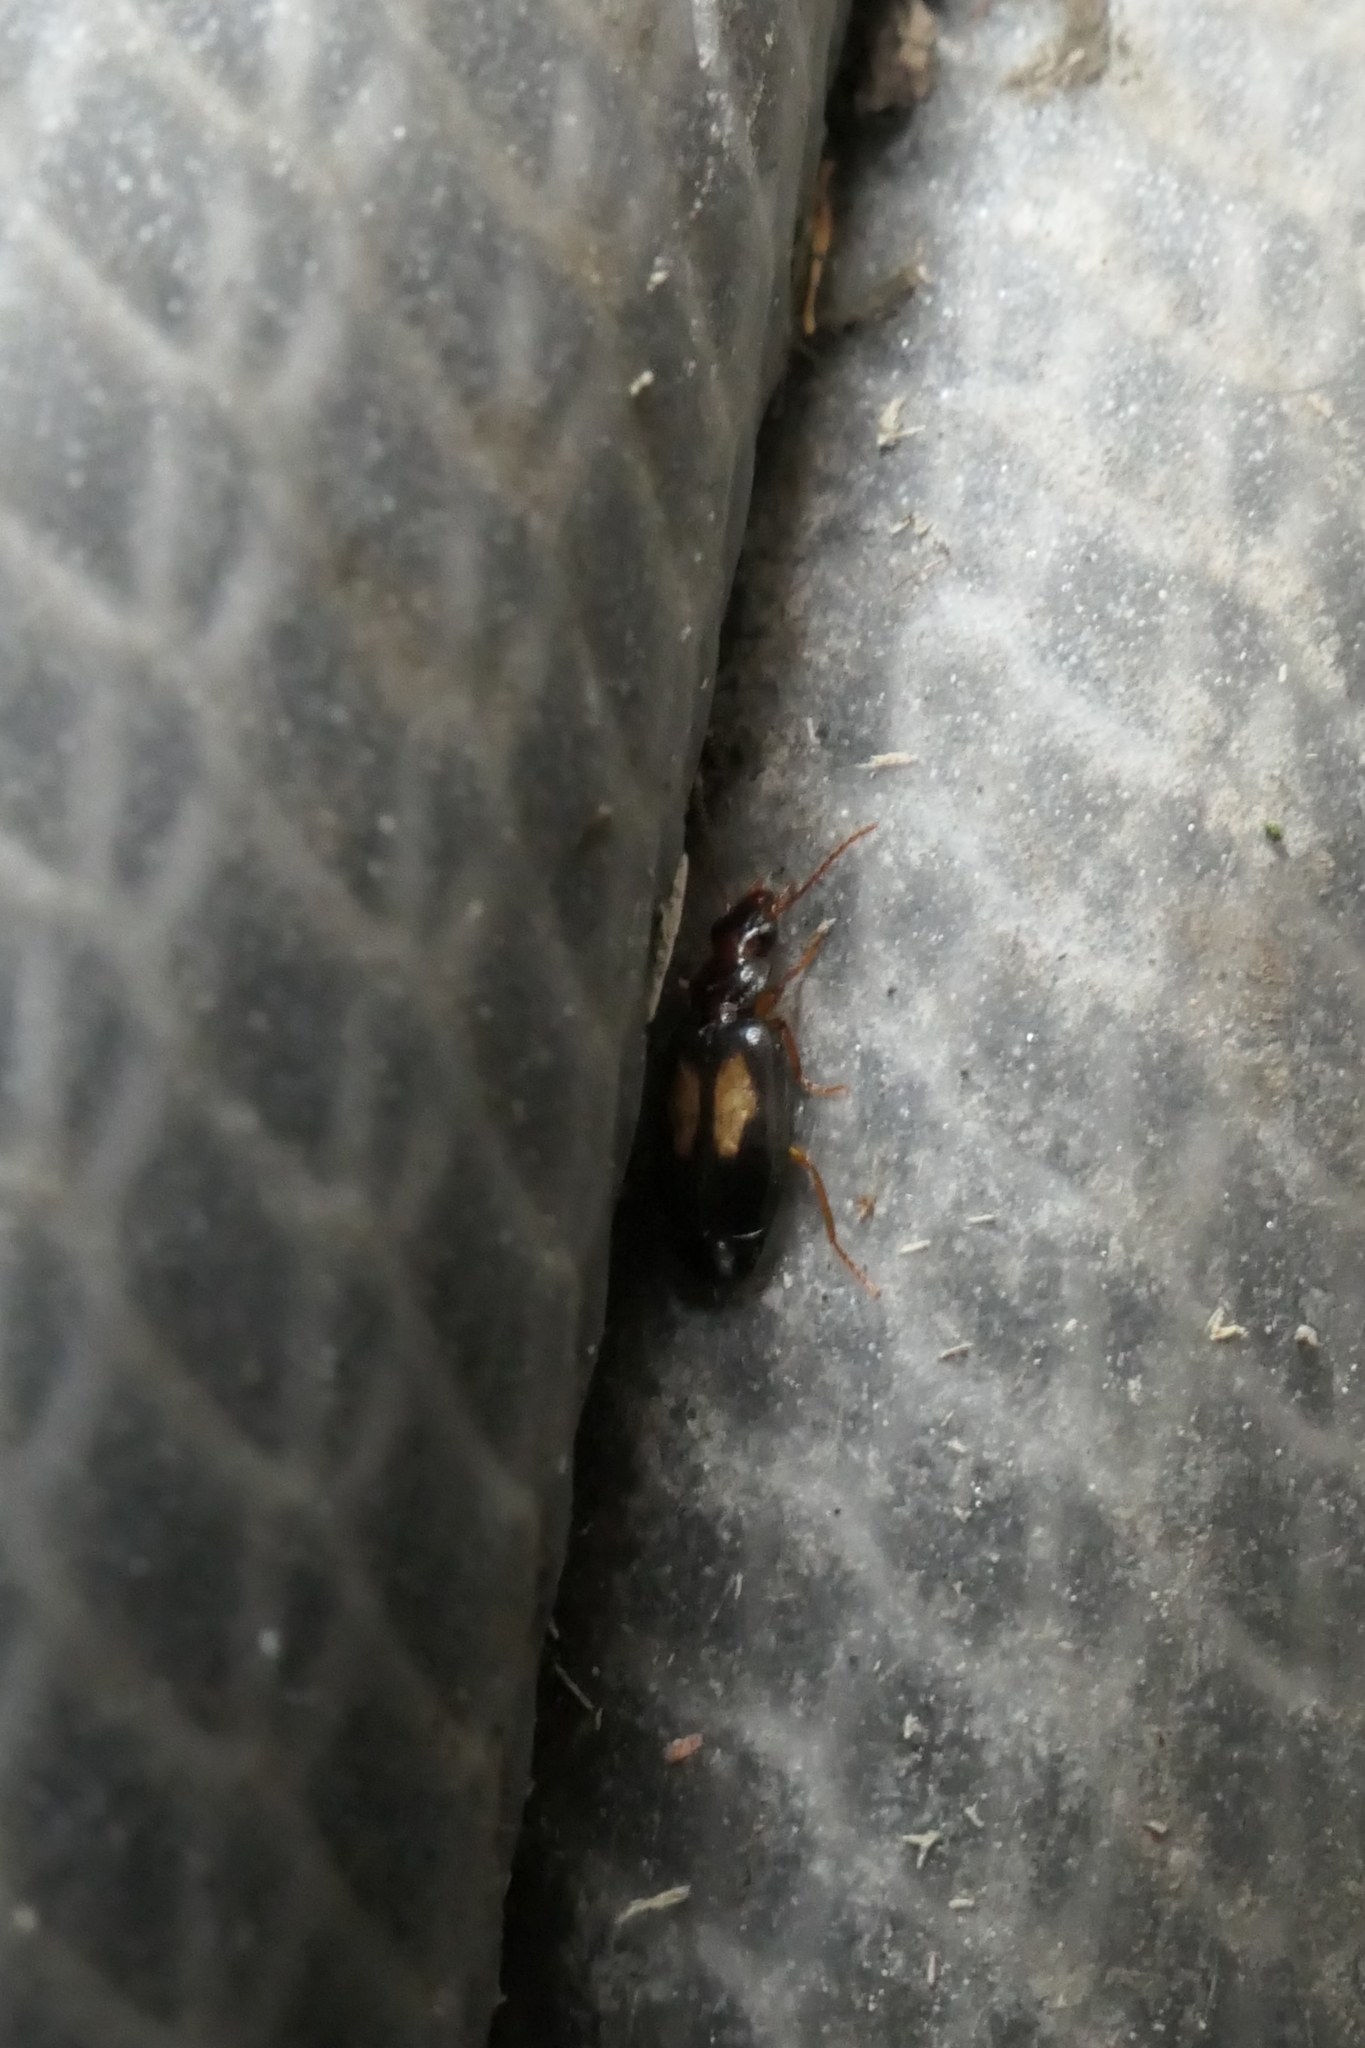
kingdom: Animalia
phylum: Arthropoda
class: Insecta
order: Coleoptera
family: Carabidae
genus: Agonocheila
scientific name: Agonocheila antipodum
